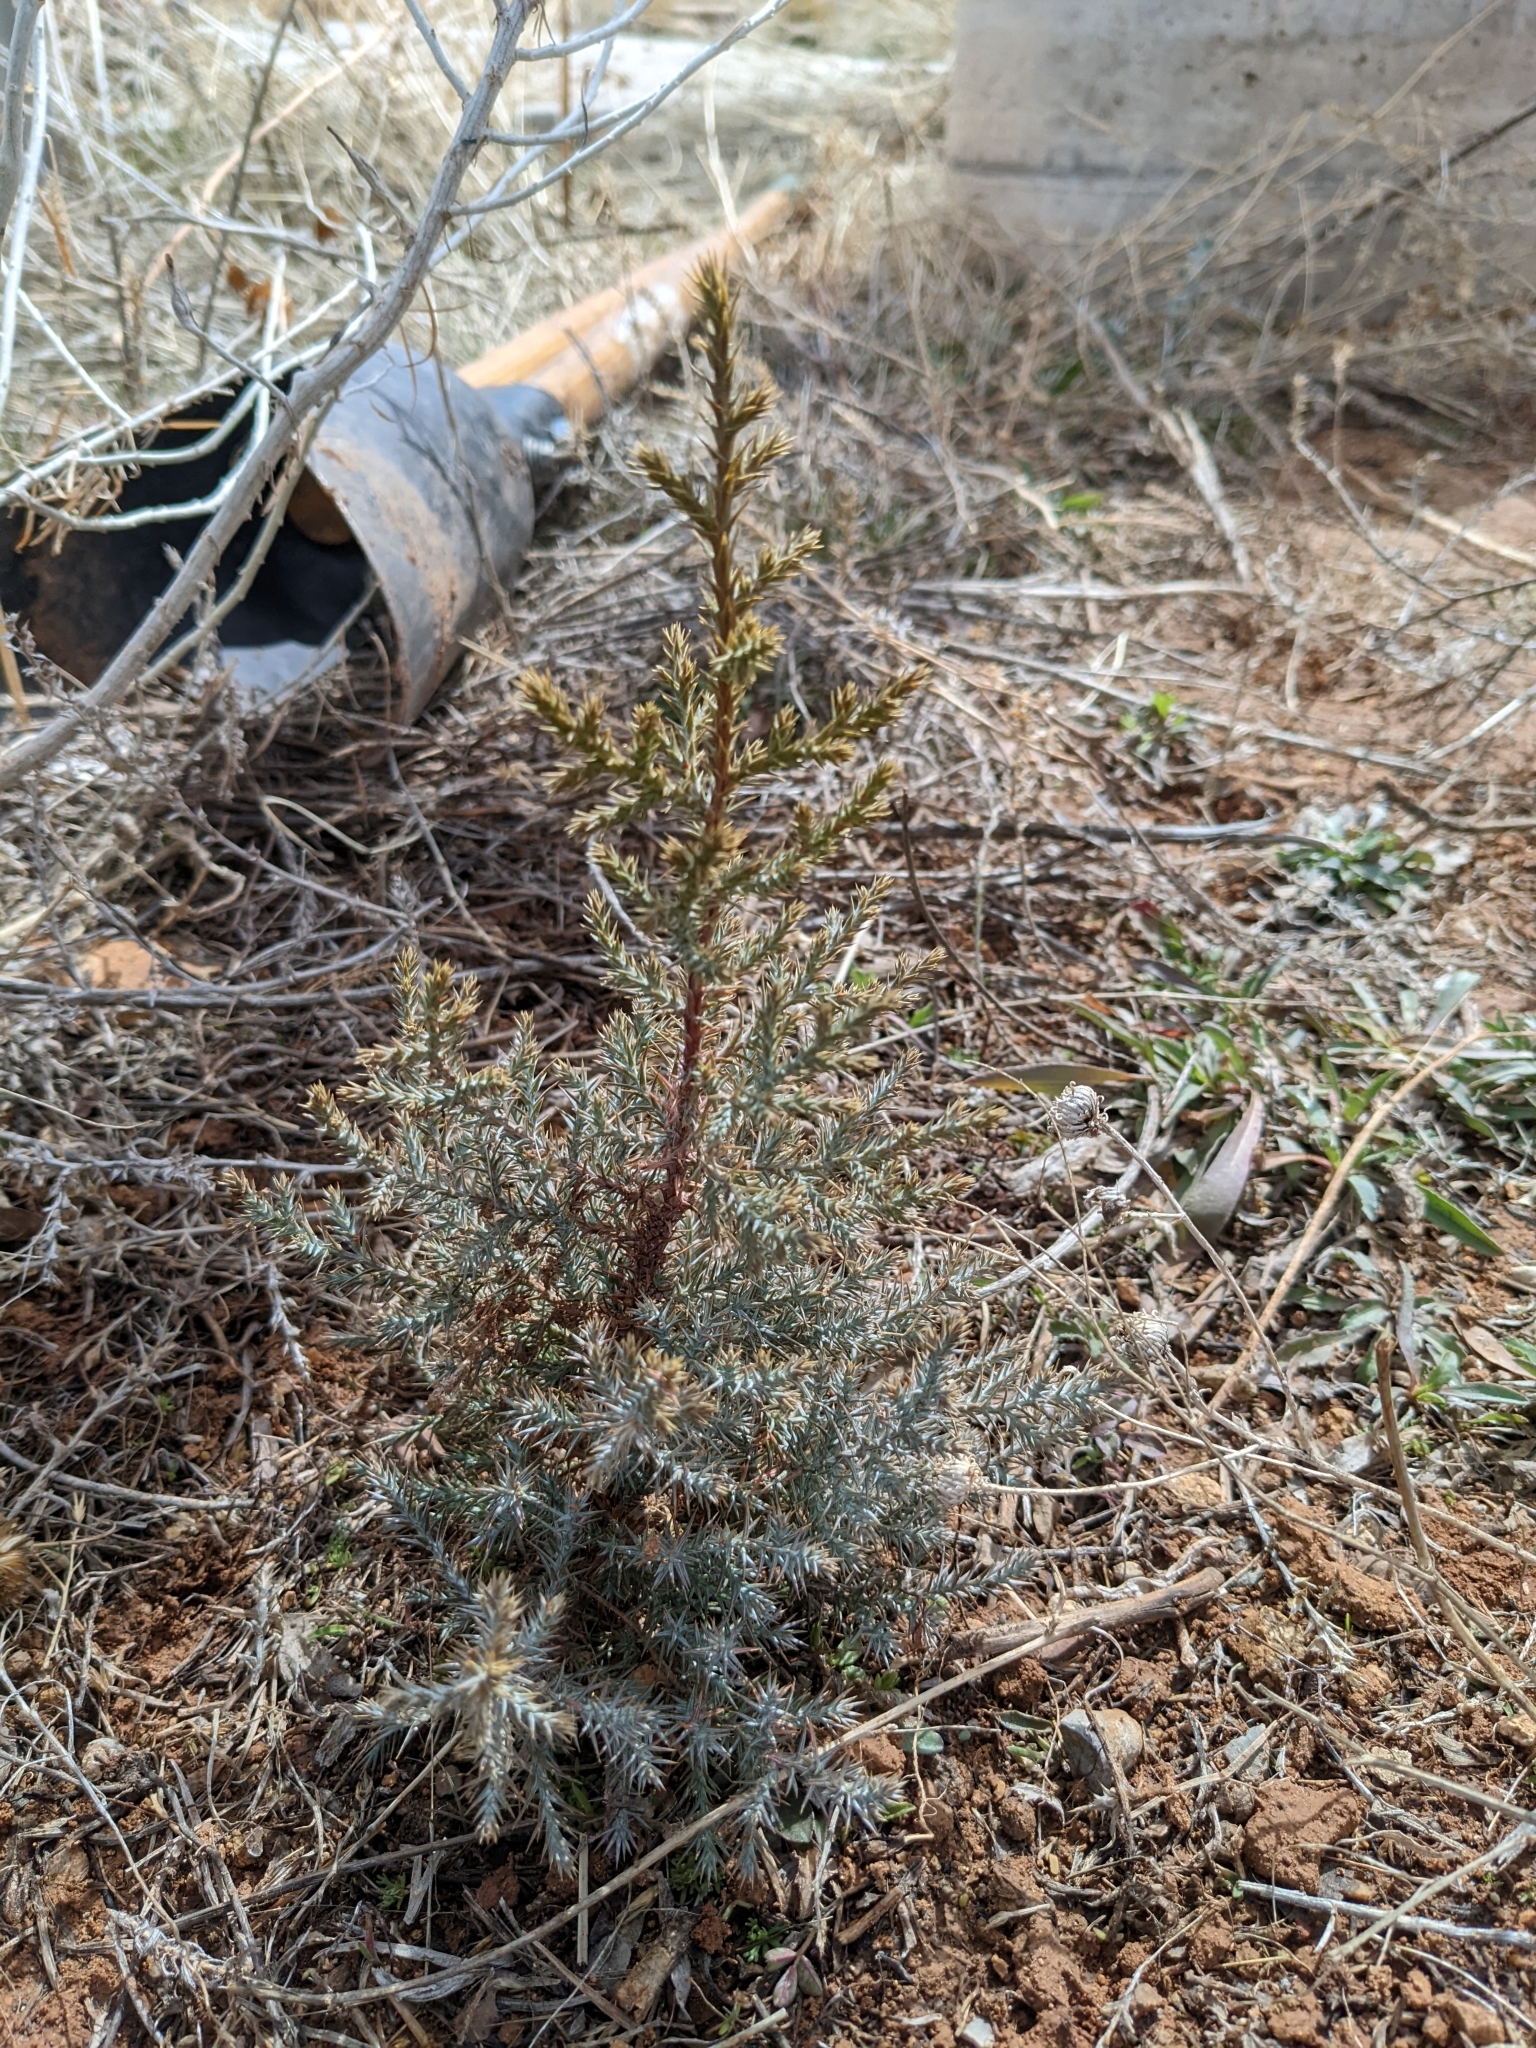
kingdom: Plantae
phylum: Tracheophyta
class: Pinopsida
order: Pinales
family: Cupressaceae
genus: Juniperus
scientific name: Juniperus osteosperma
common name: Utah juniper
